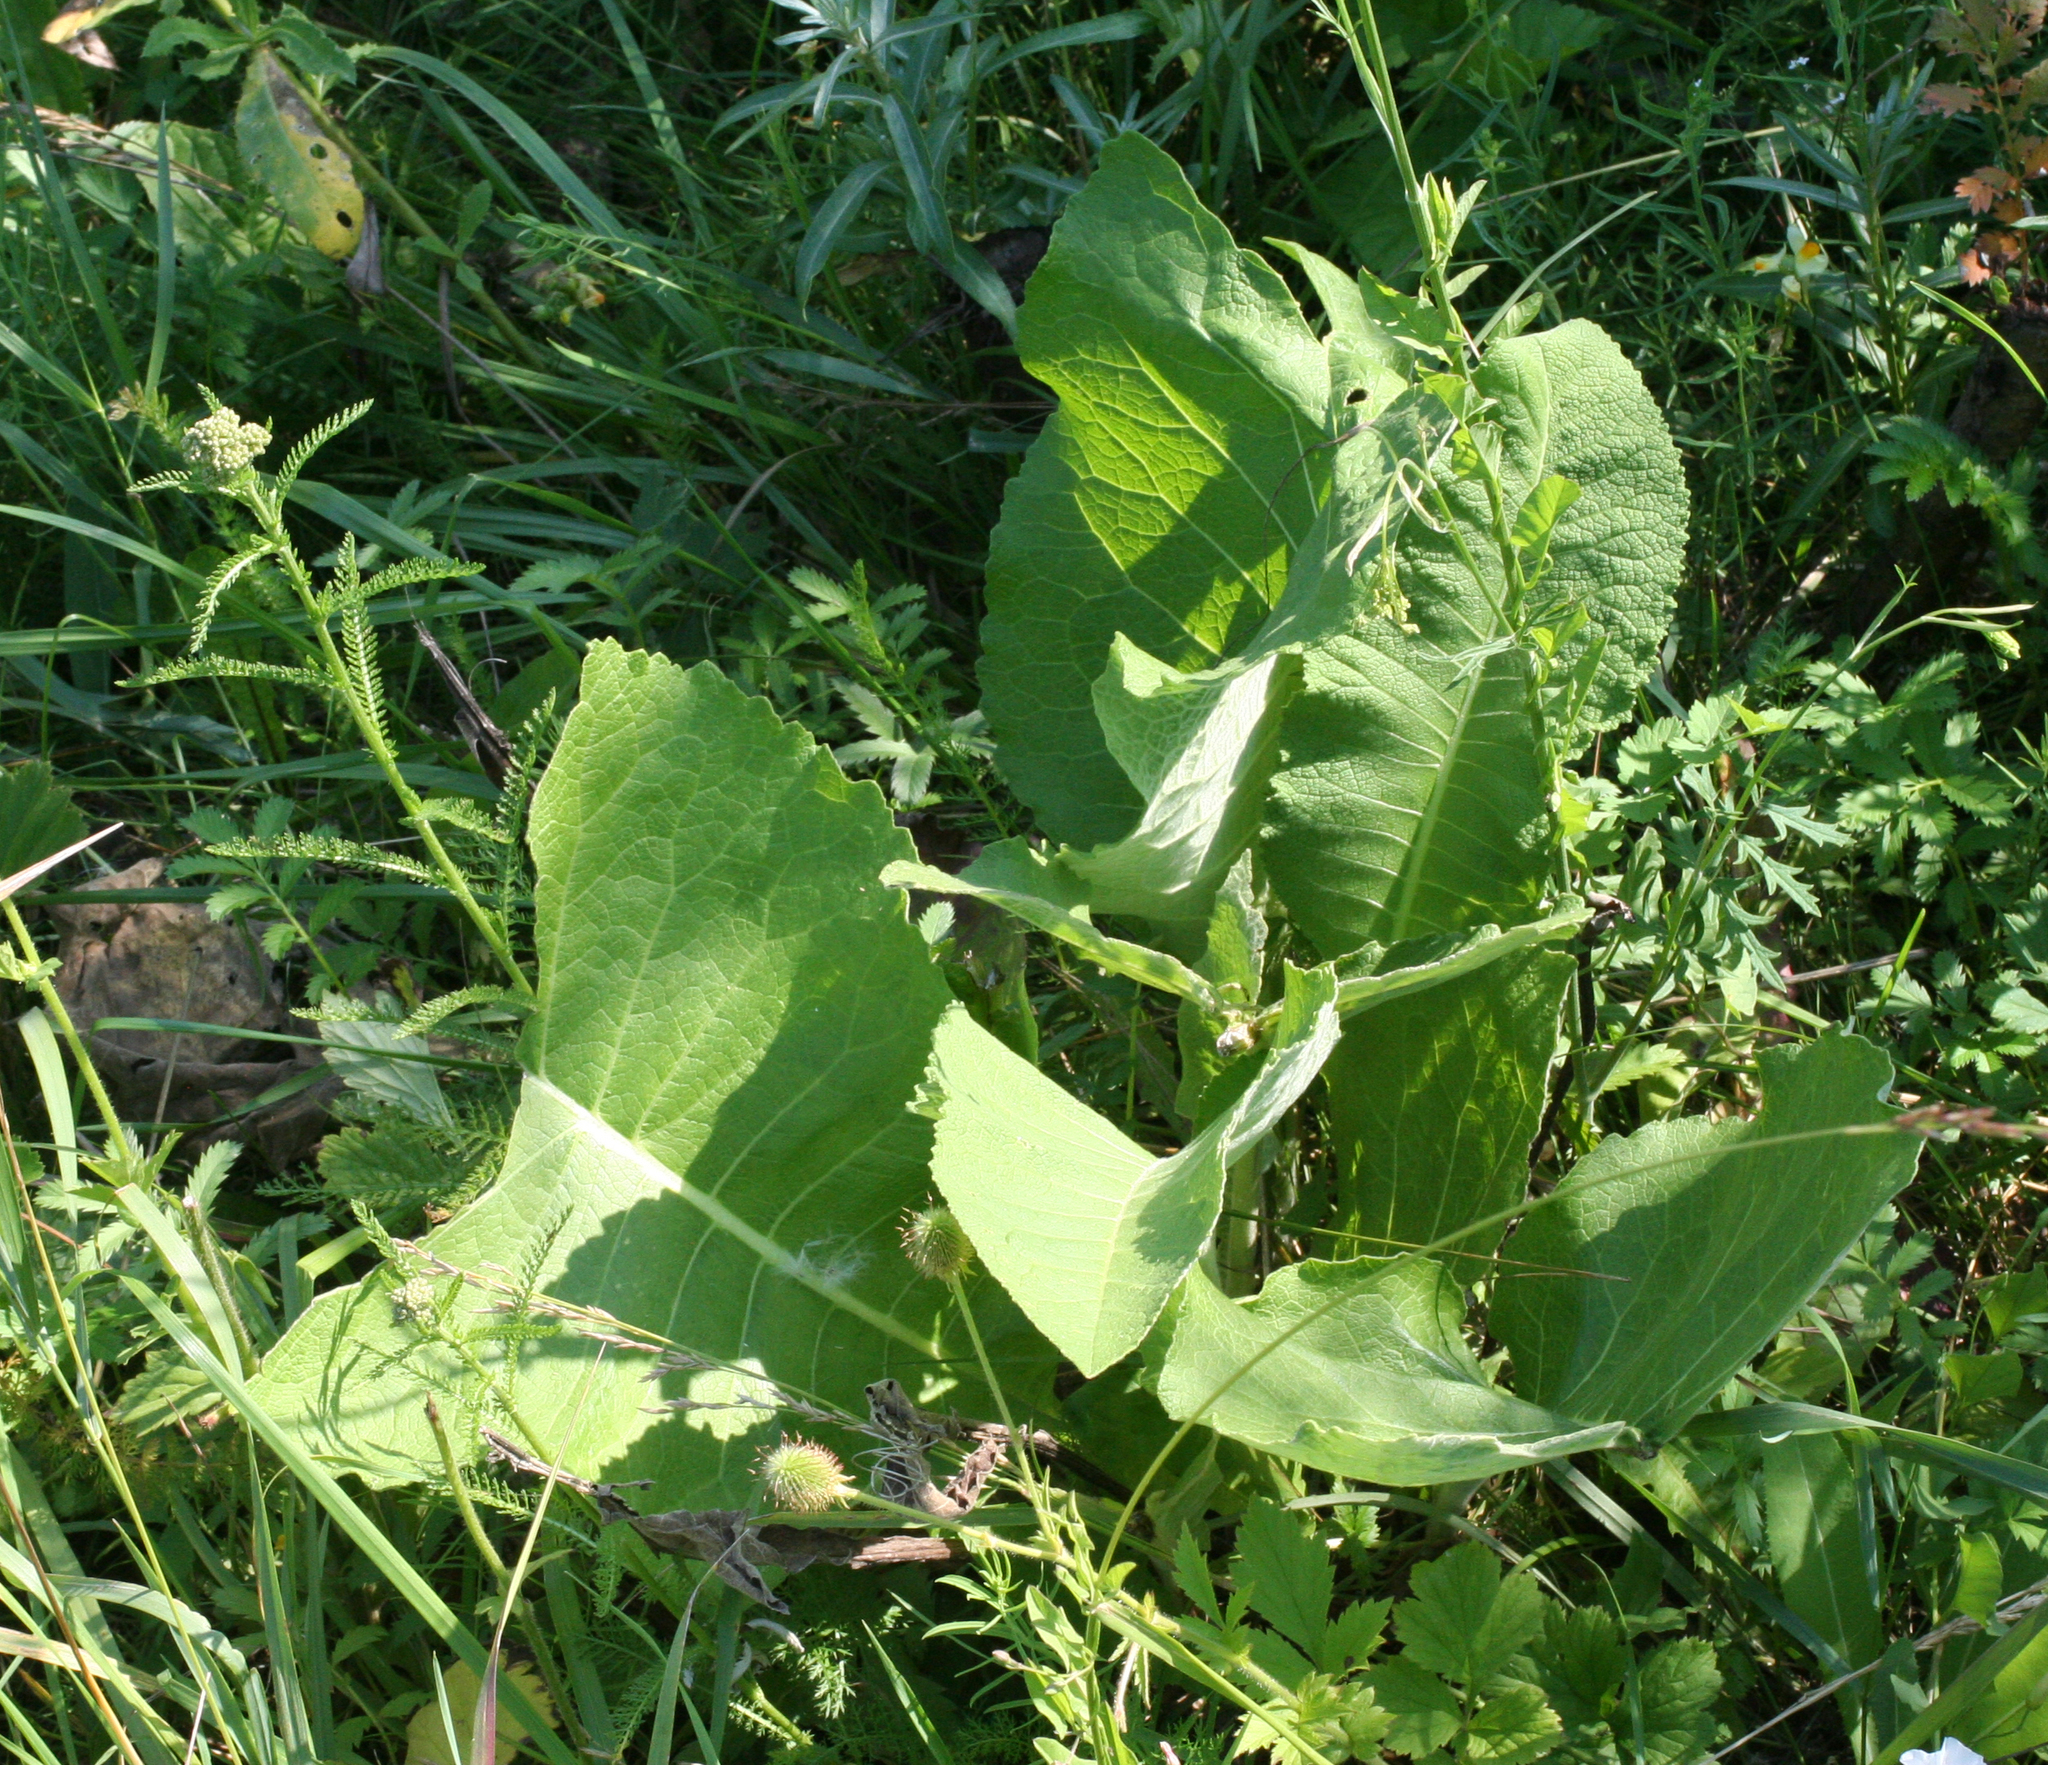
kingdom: Plantae
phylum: Tracheophyta
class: Magnoliopsida
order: Asterales
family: Asteraceae
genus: Inula
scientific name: Inula helenium
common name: Elecampane
